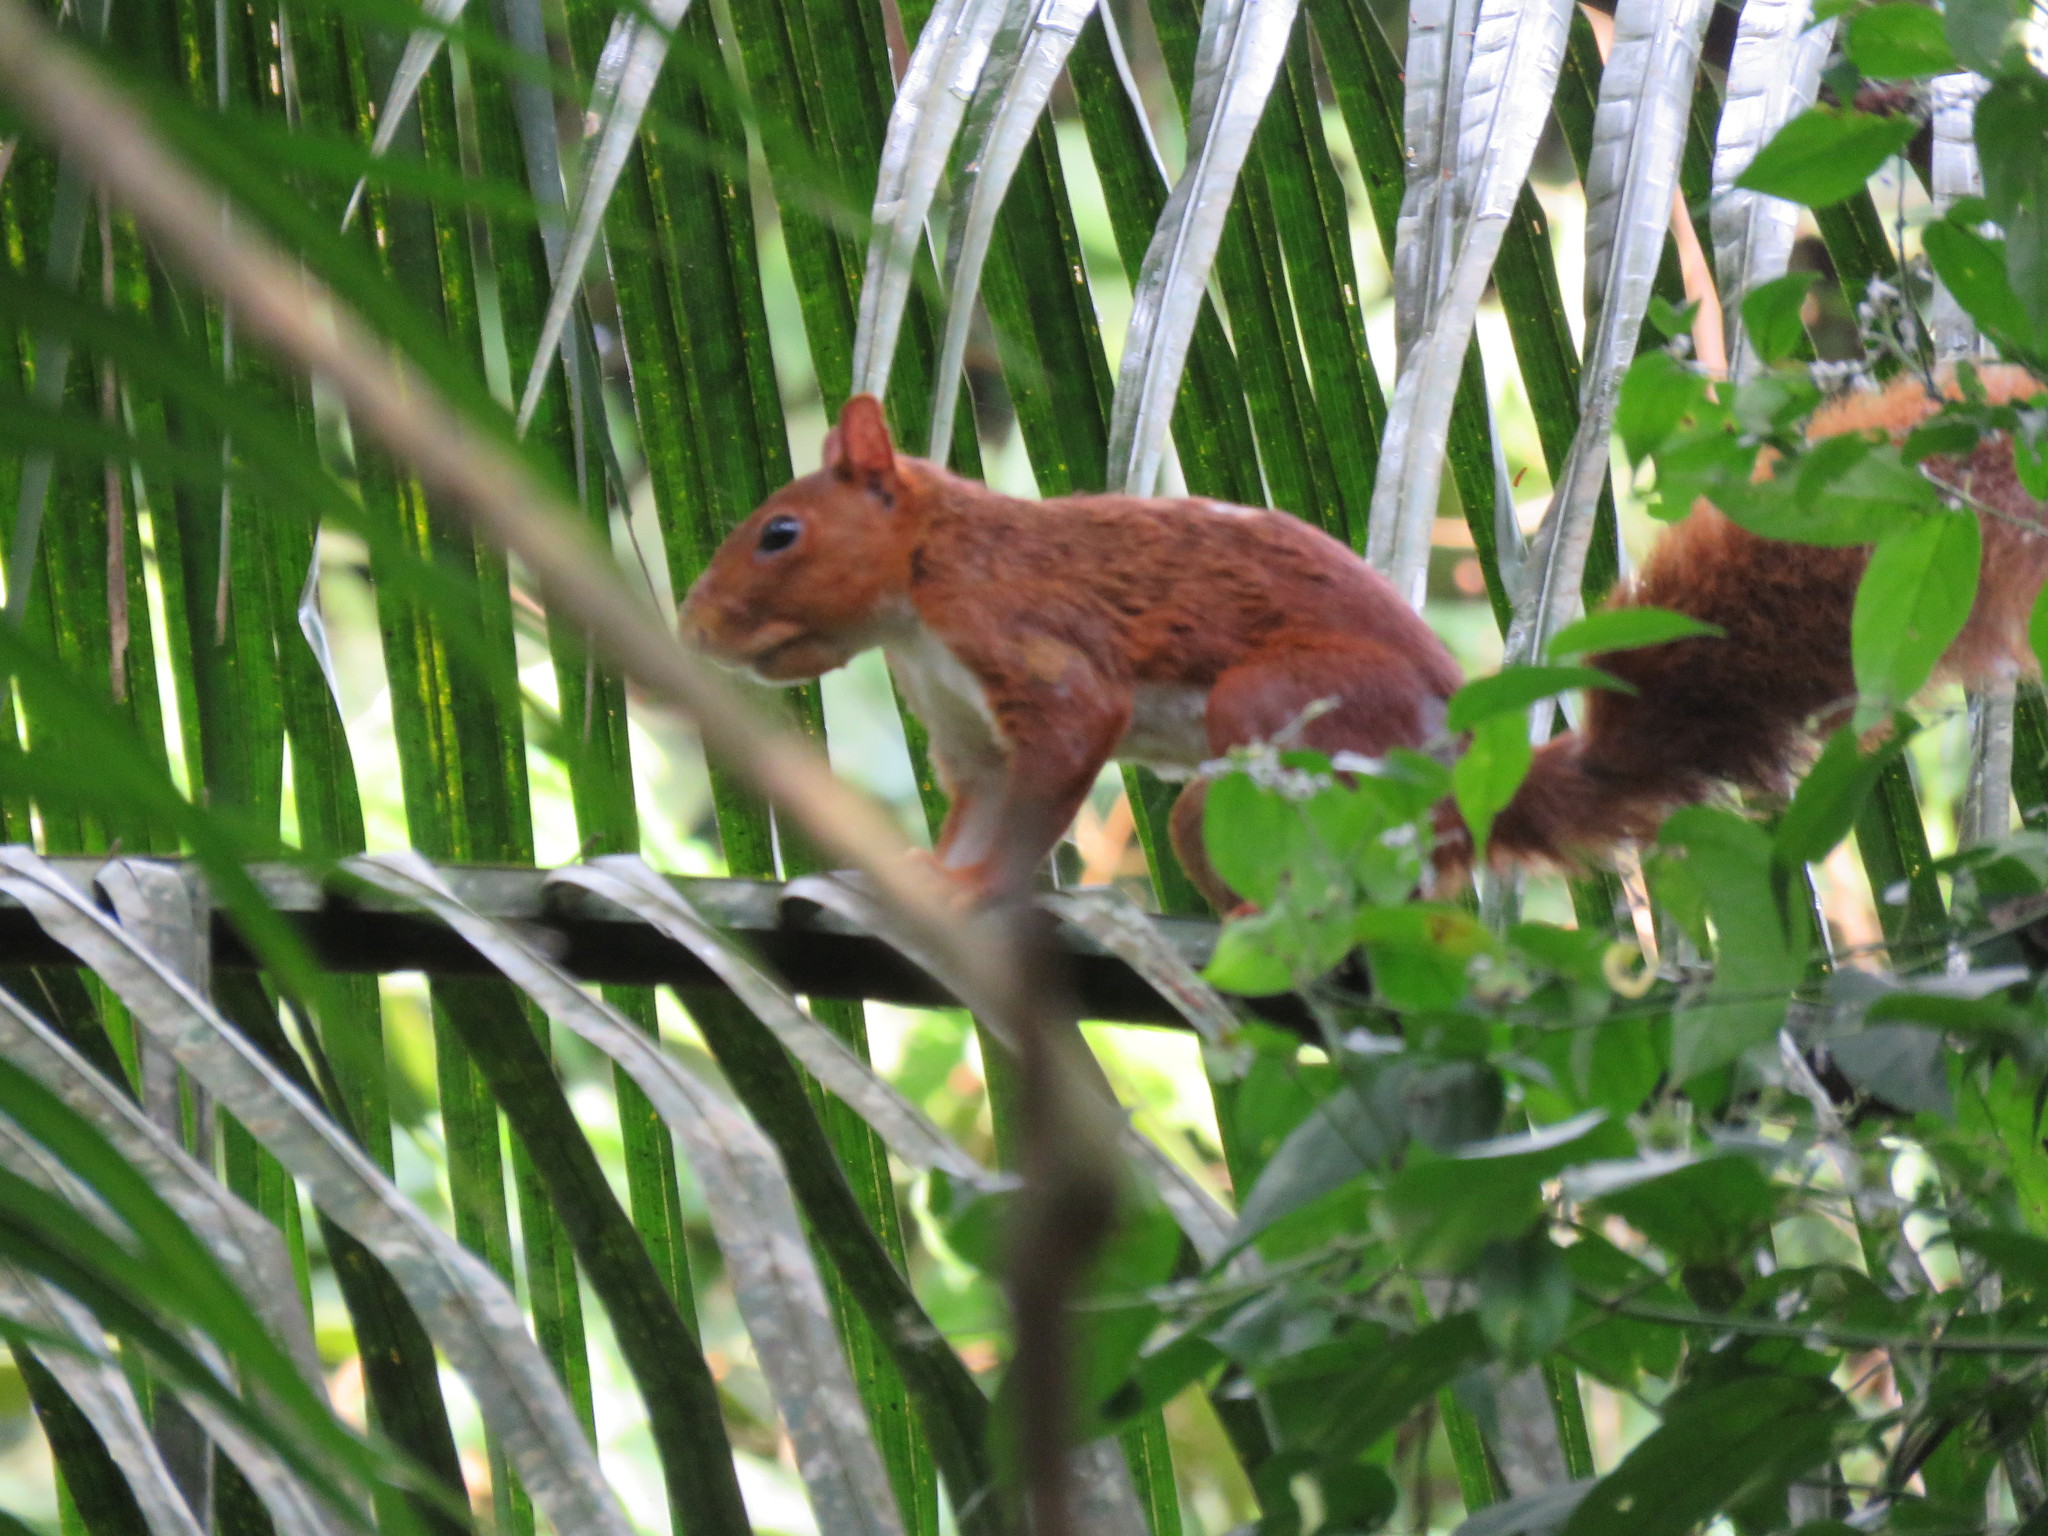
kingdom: Animalia
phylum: Chordata
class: Mammalia
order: Rodentia
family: Sciuridae
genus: Sciurus
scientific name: Sciurus spadiceus
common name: Southern amazon red squirrel
